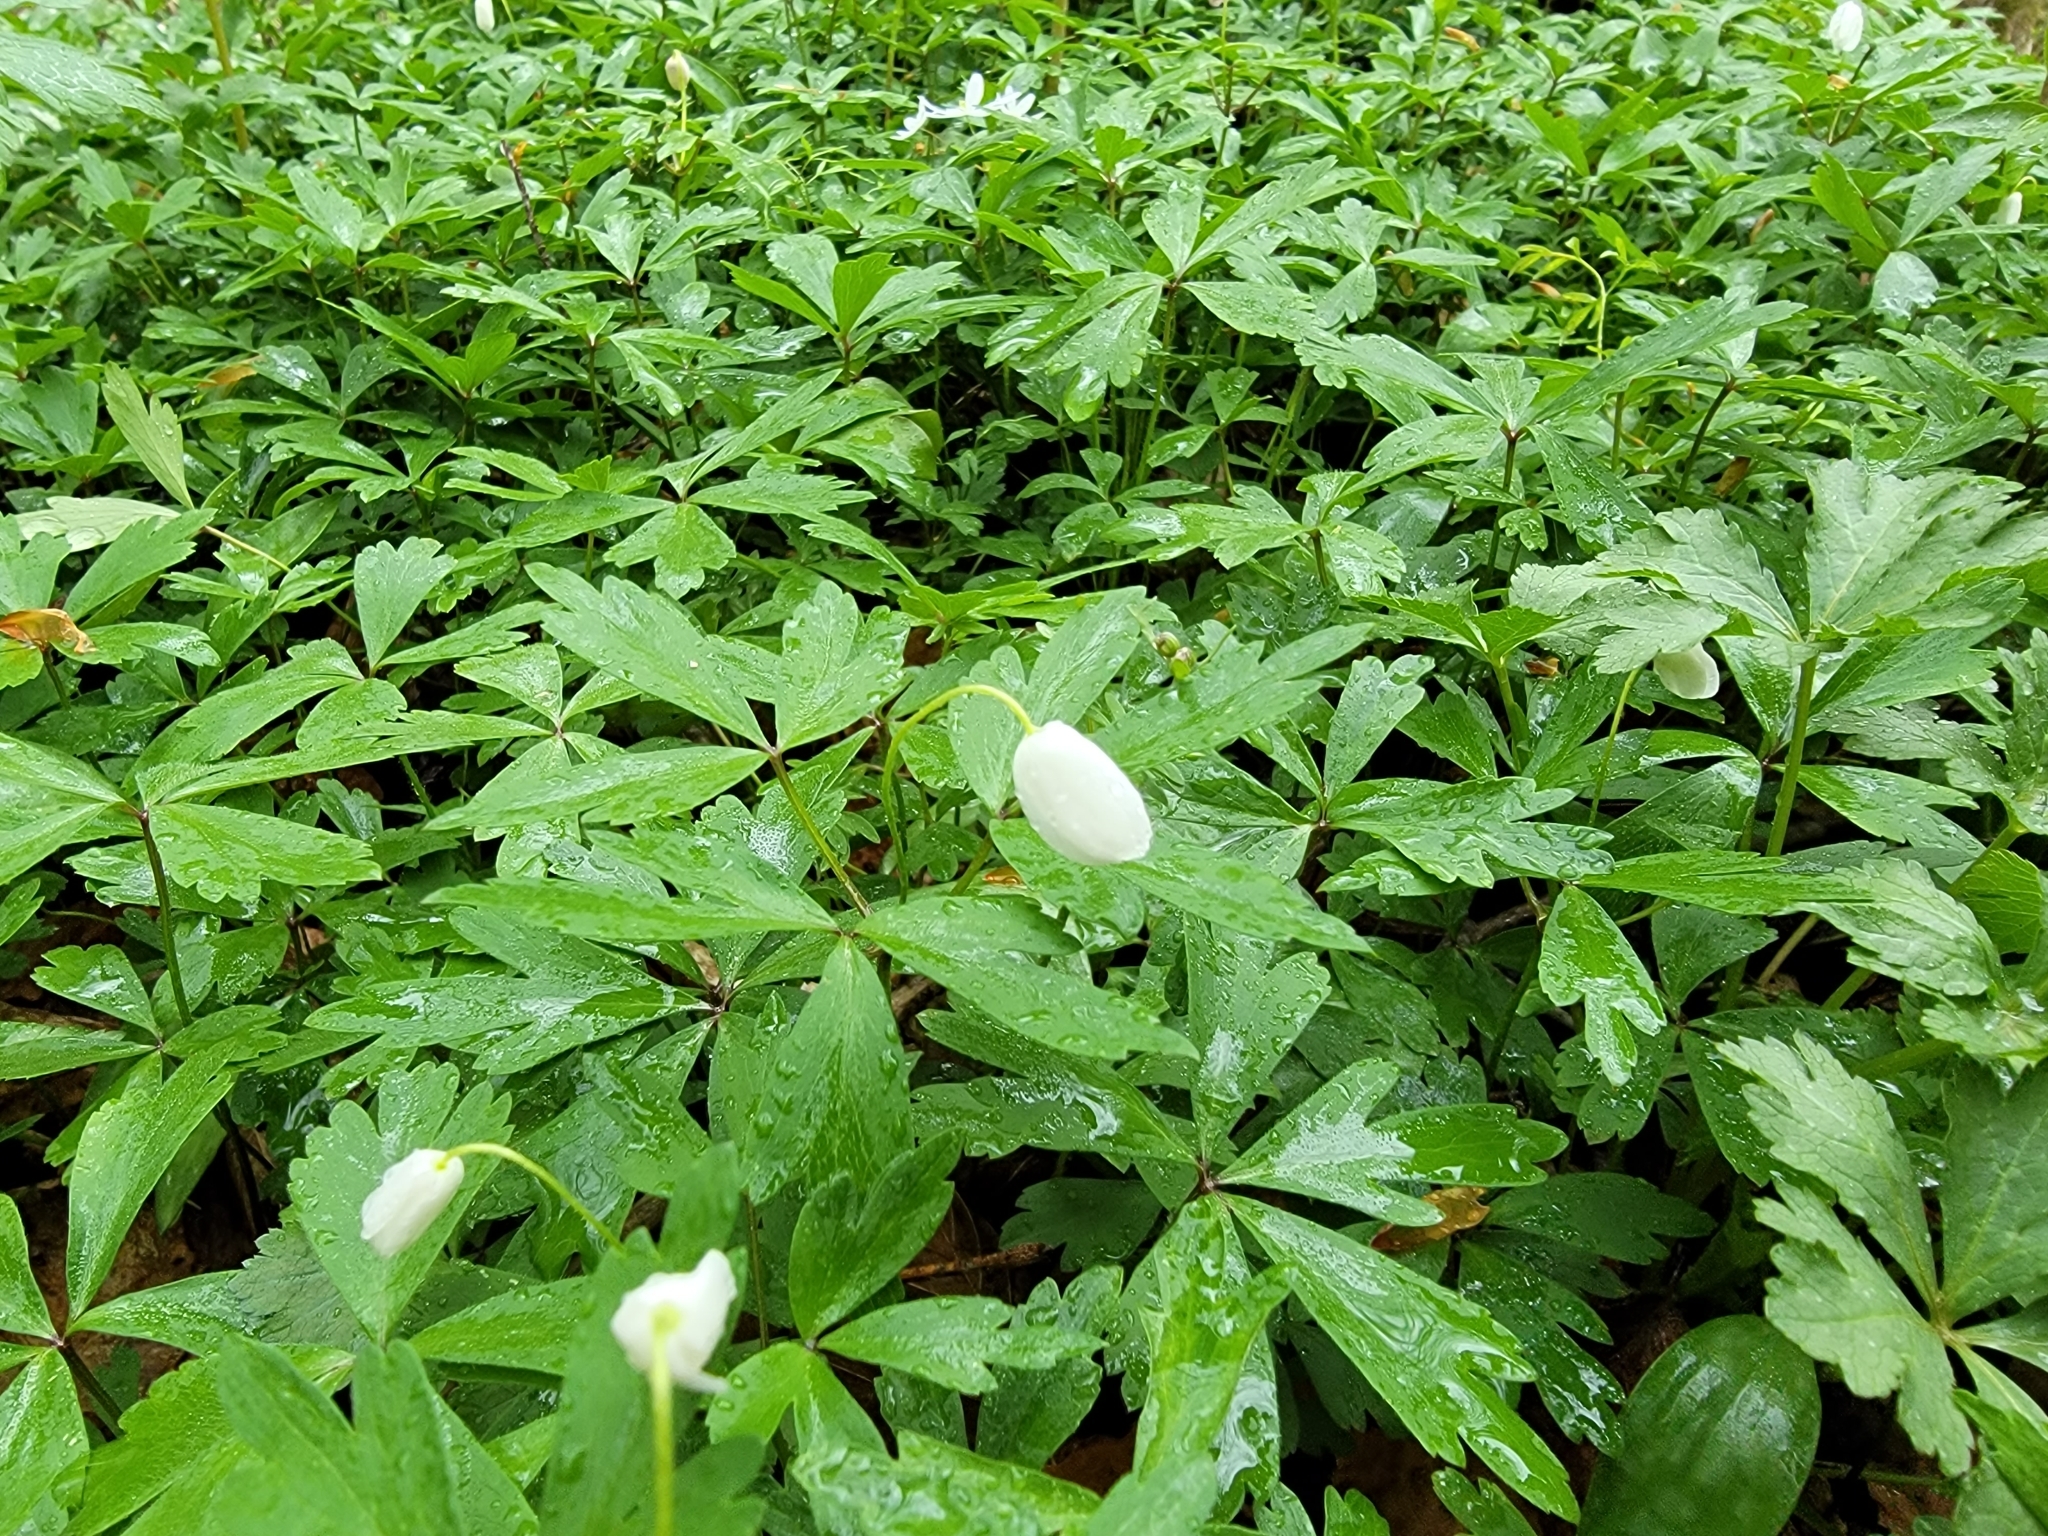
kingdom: Plantae
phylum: Tracheophyta
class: Magnoliopsida
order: Ranunculales
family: Ranunculaceae
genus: Anemone
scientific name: Anemone quinquefolia
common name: Wood anemone
